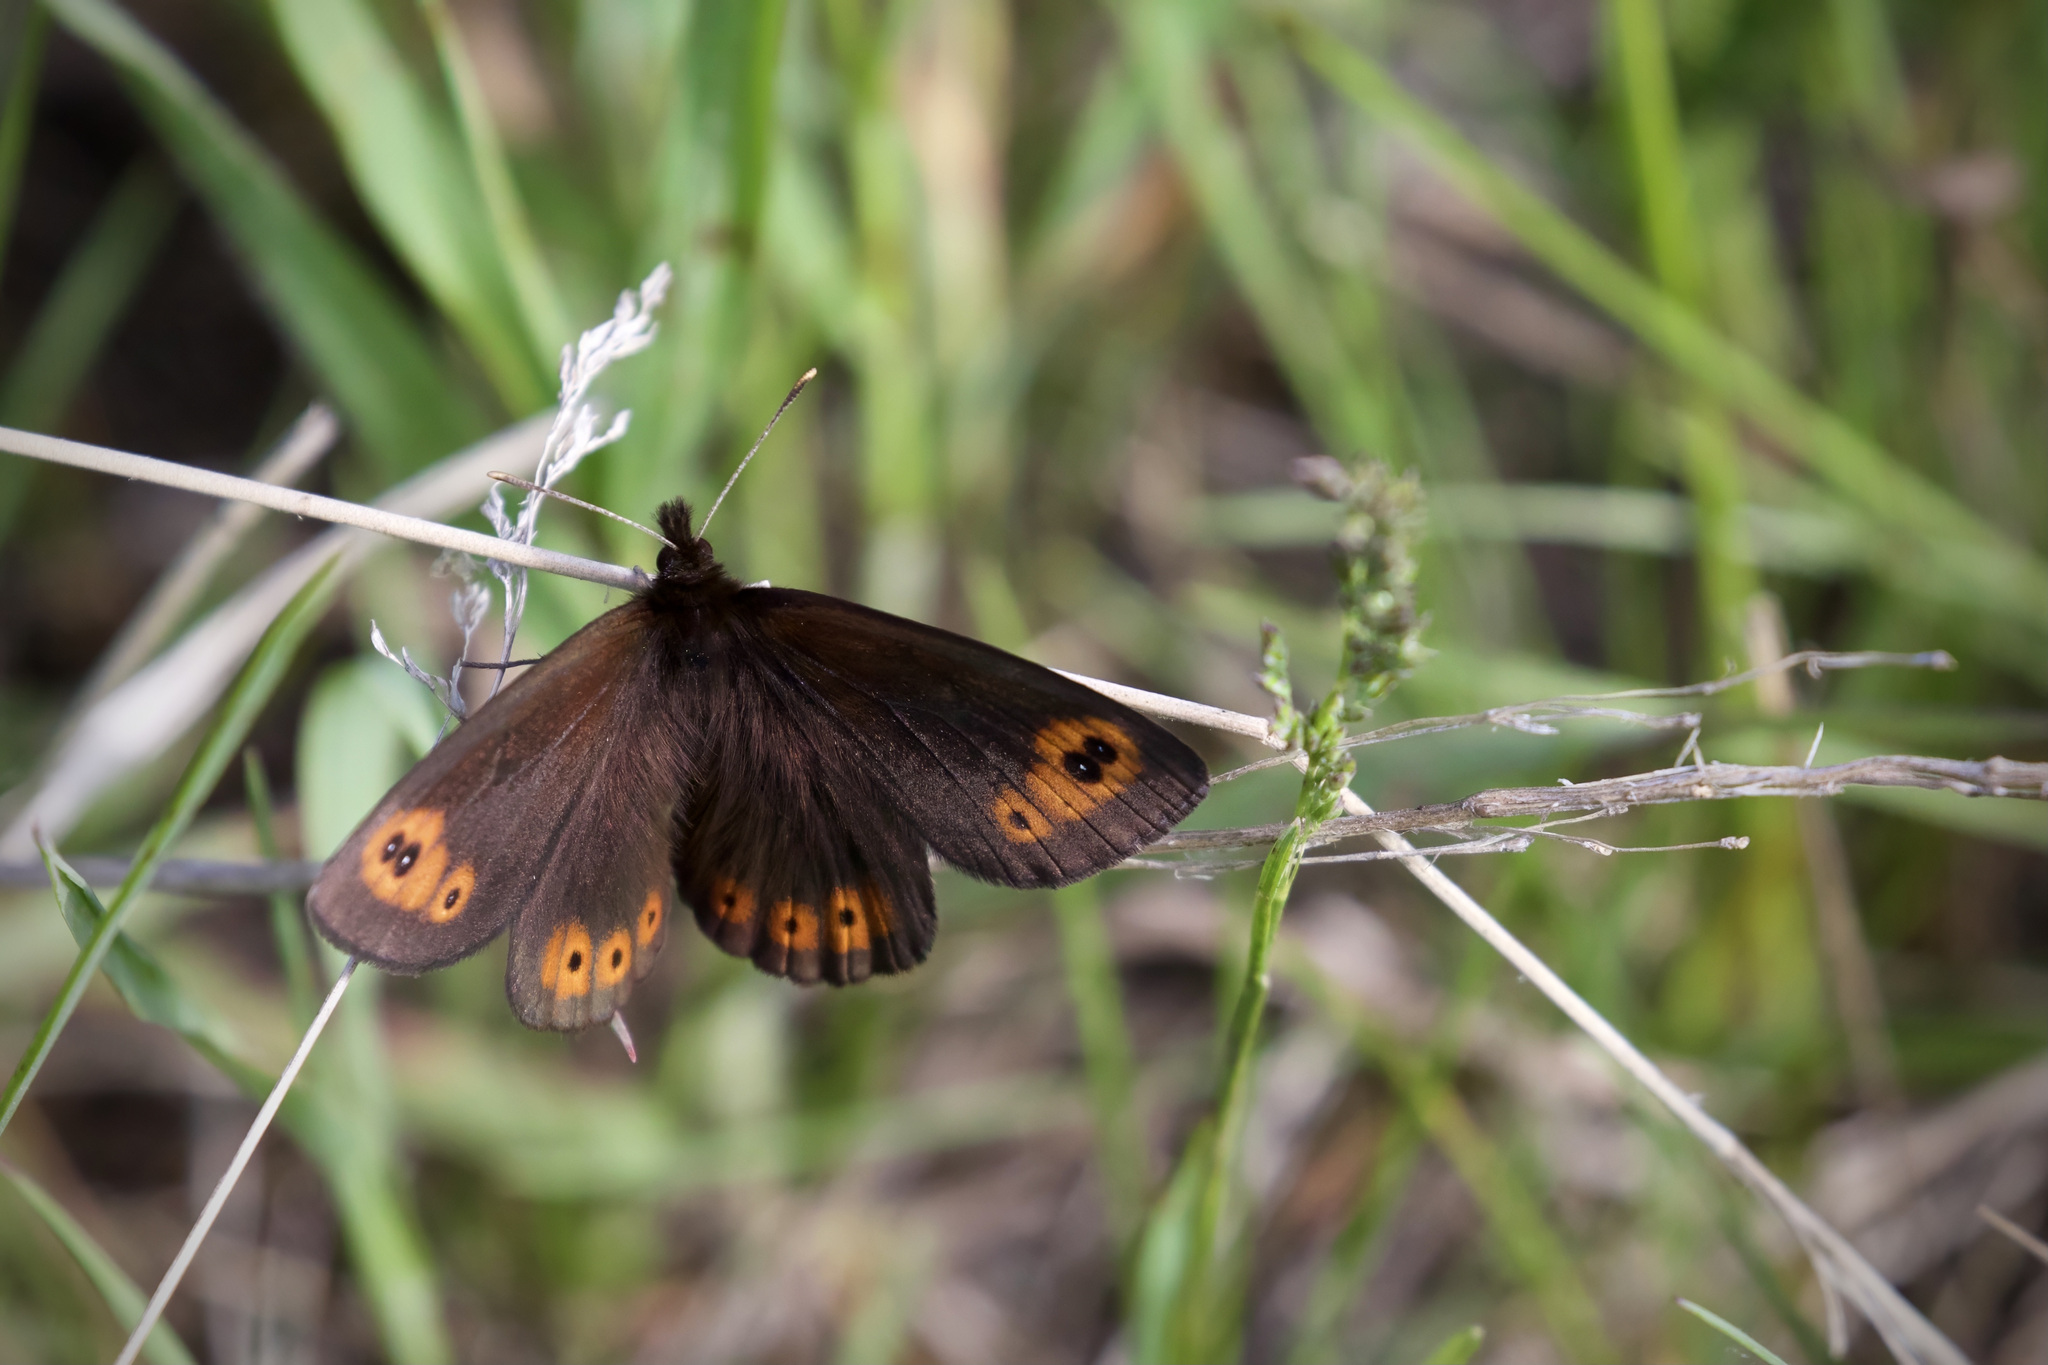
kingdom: Animalia
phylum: Arthropoda
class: Insecta
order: Lepidoptera
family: Nymphalidae
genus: Erebia
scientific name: Erebia epipsodea
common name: Common alpine
